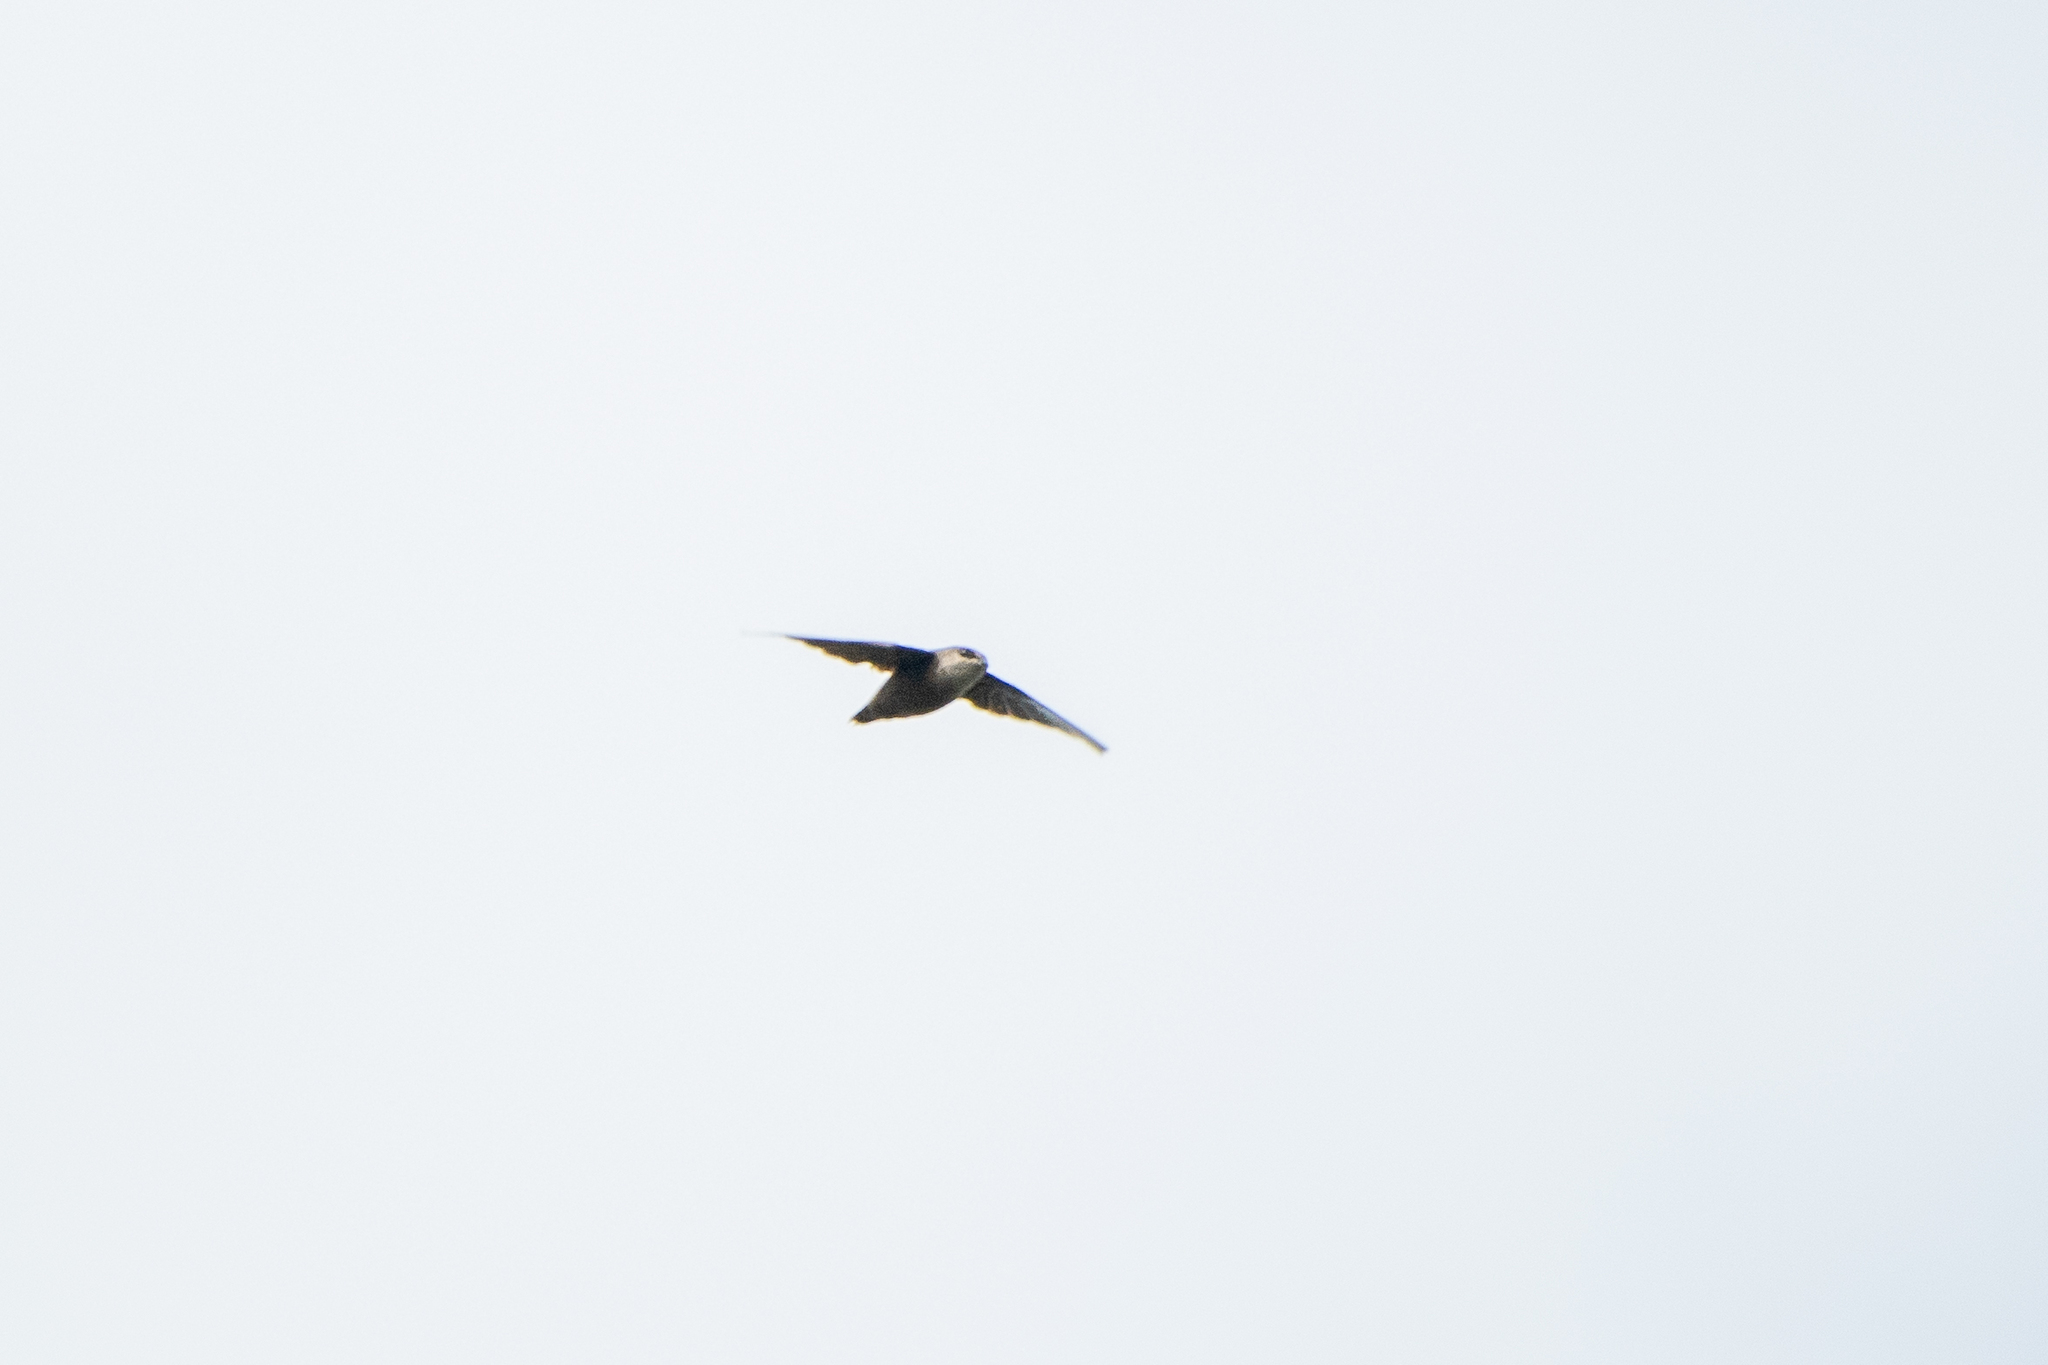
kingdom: Animalia
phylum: Chordata
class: Aves
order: Apodiformes
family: Apodidae
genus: Chaetura
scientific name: Chaetura pelagica
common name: Chimney swift
